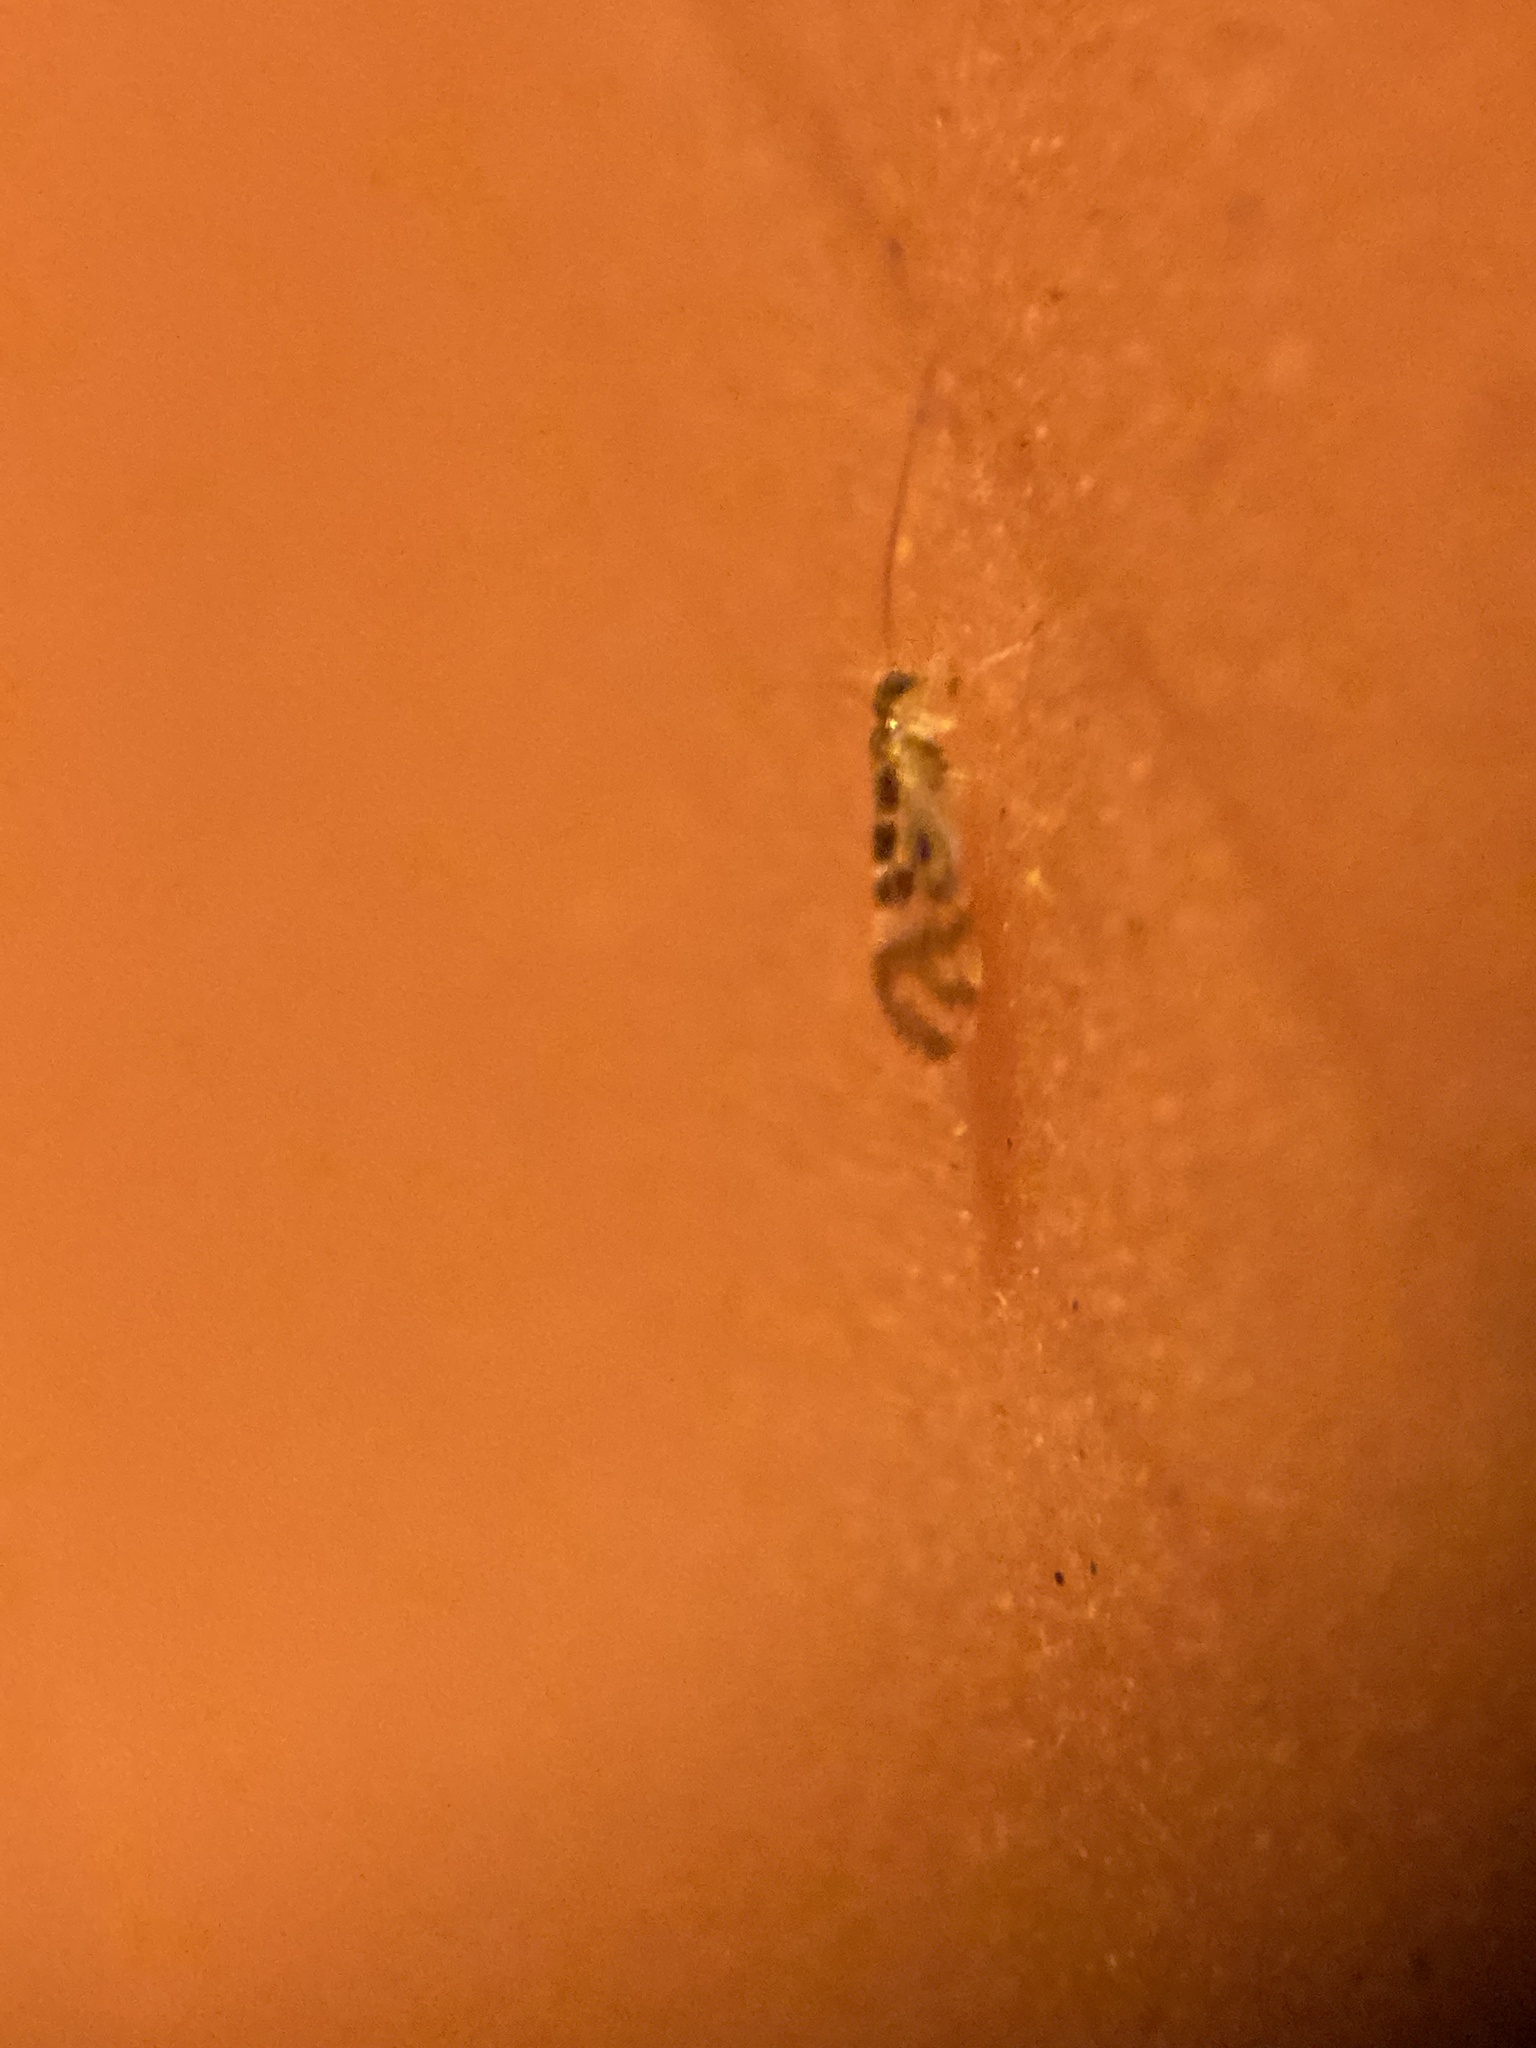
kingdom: Animalia
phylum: Arthropoda
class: Insecta
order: Psocodea
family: Stenopsocidae
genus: Graphopsocus
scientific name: Graphopsocus cruciatus
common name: Lizard bark louse
